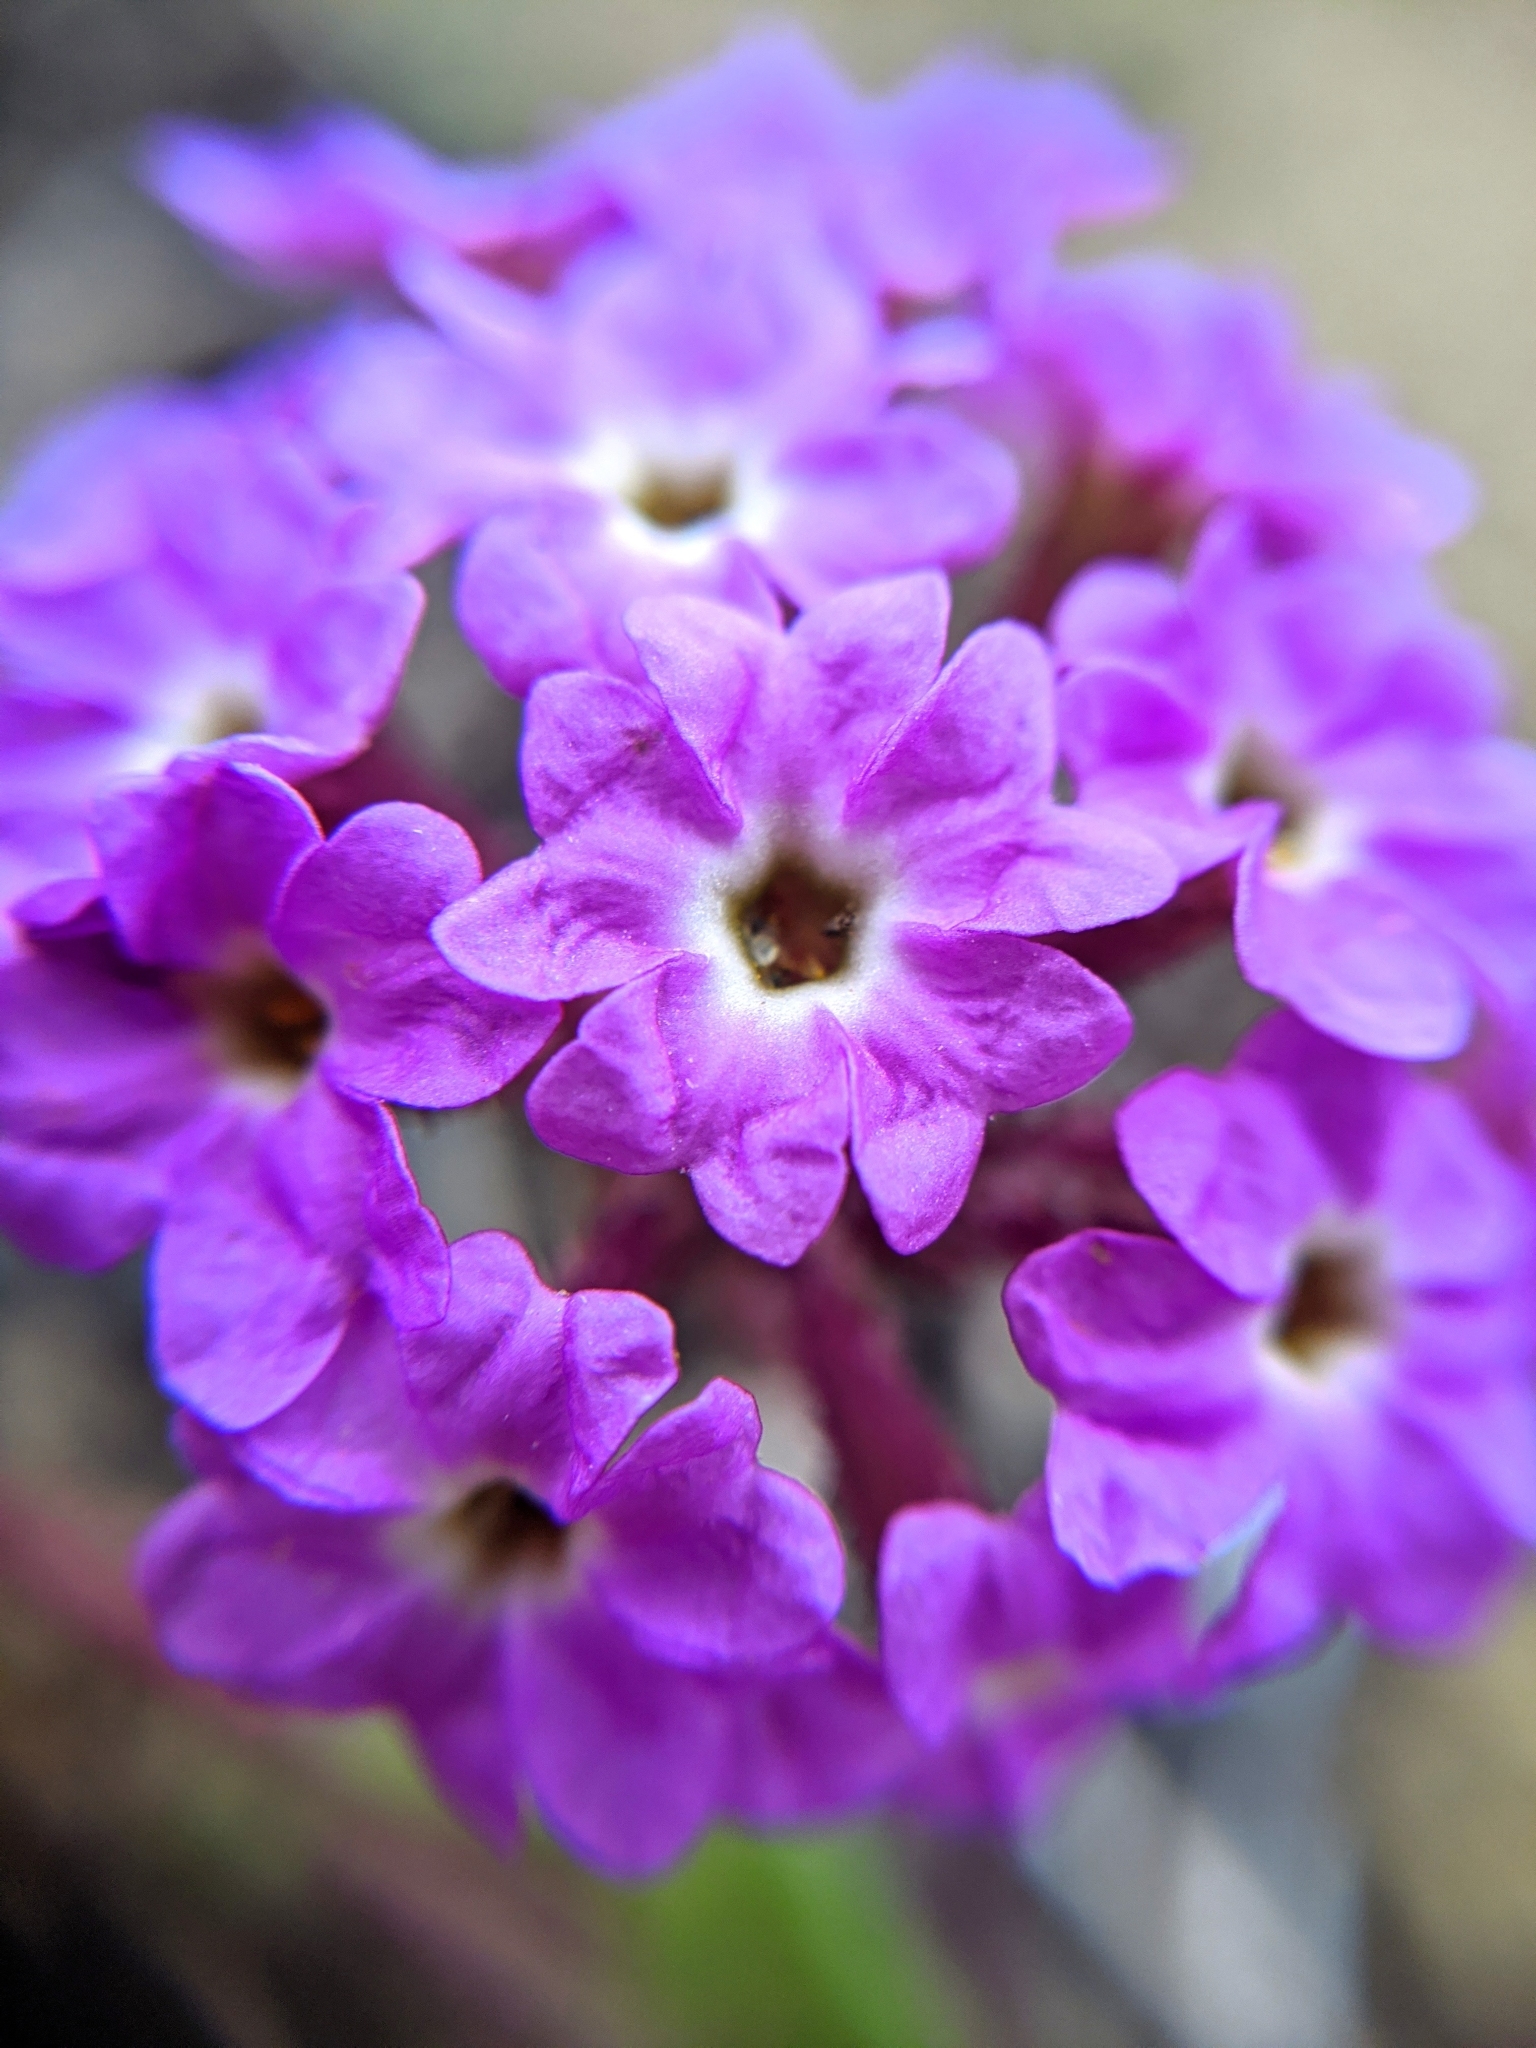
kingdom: Plantae
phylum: Tracheophyta
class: Magnoliopsida
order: Caryophyllales
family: Nyctaginaceae
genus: Abronia
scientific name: Abronia umbellata
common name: Sand-verbena
